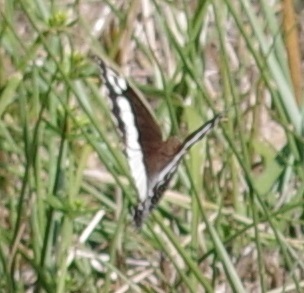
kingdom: Animalia
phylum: Arthropoda
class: Insecta
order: Lepidoptera
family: Lycaenidae
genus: Loweia
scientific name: Loweia tityrus
